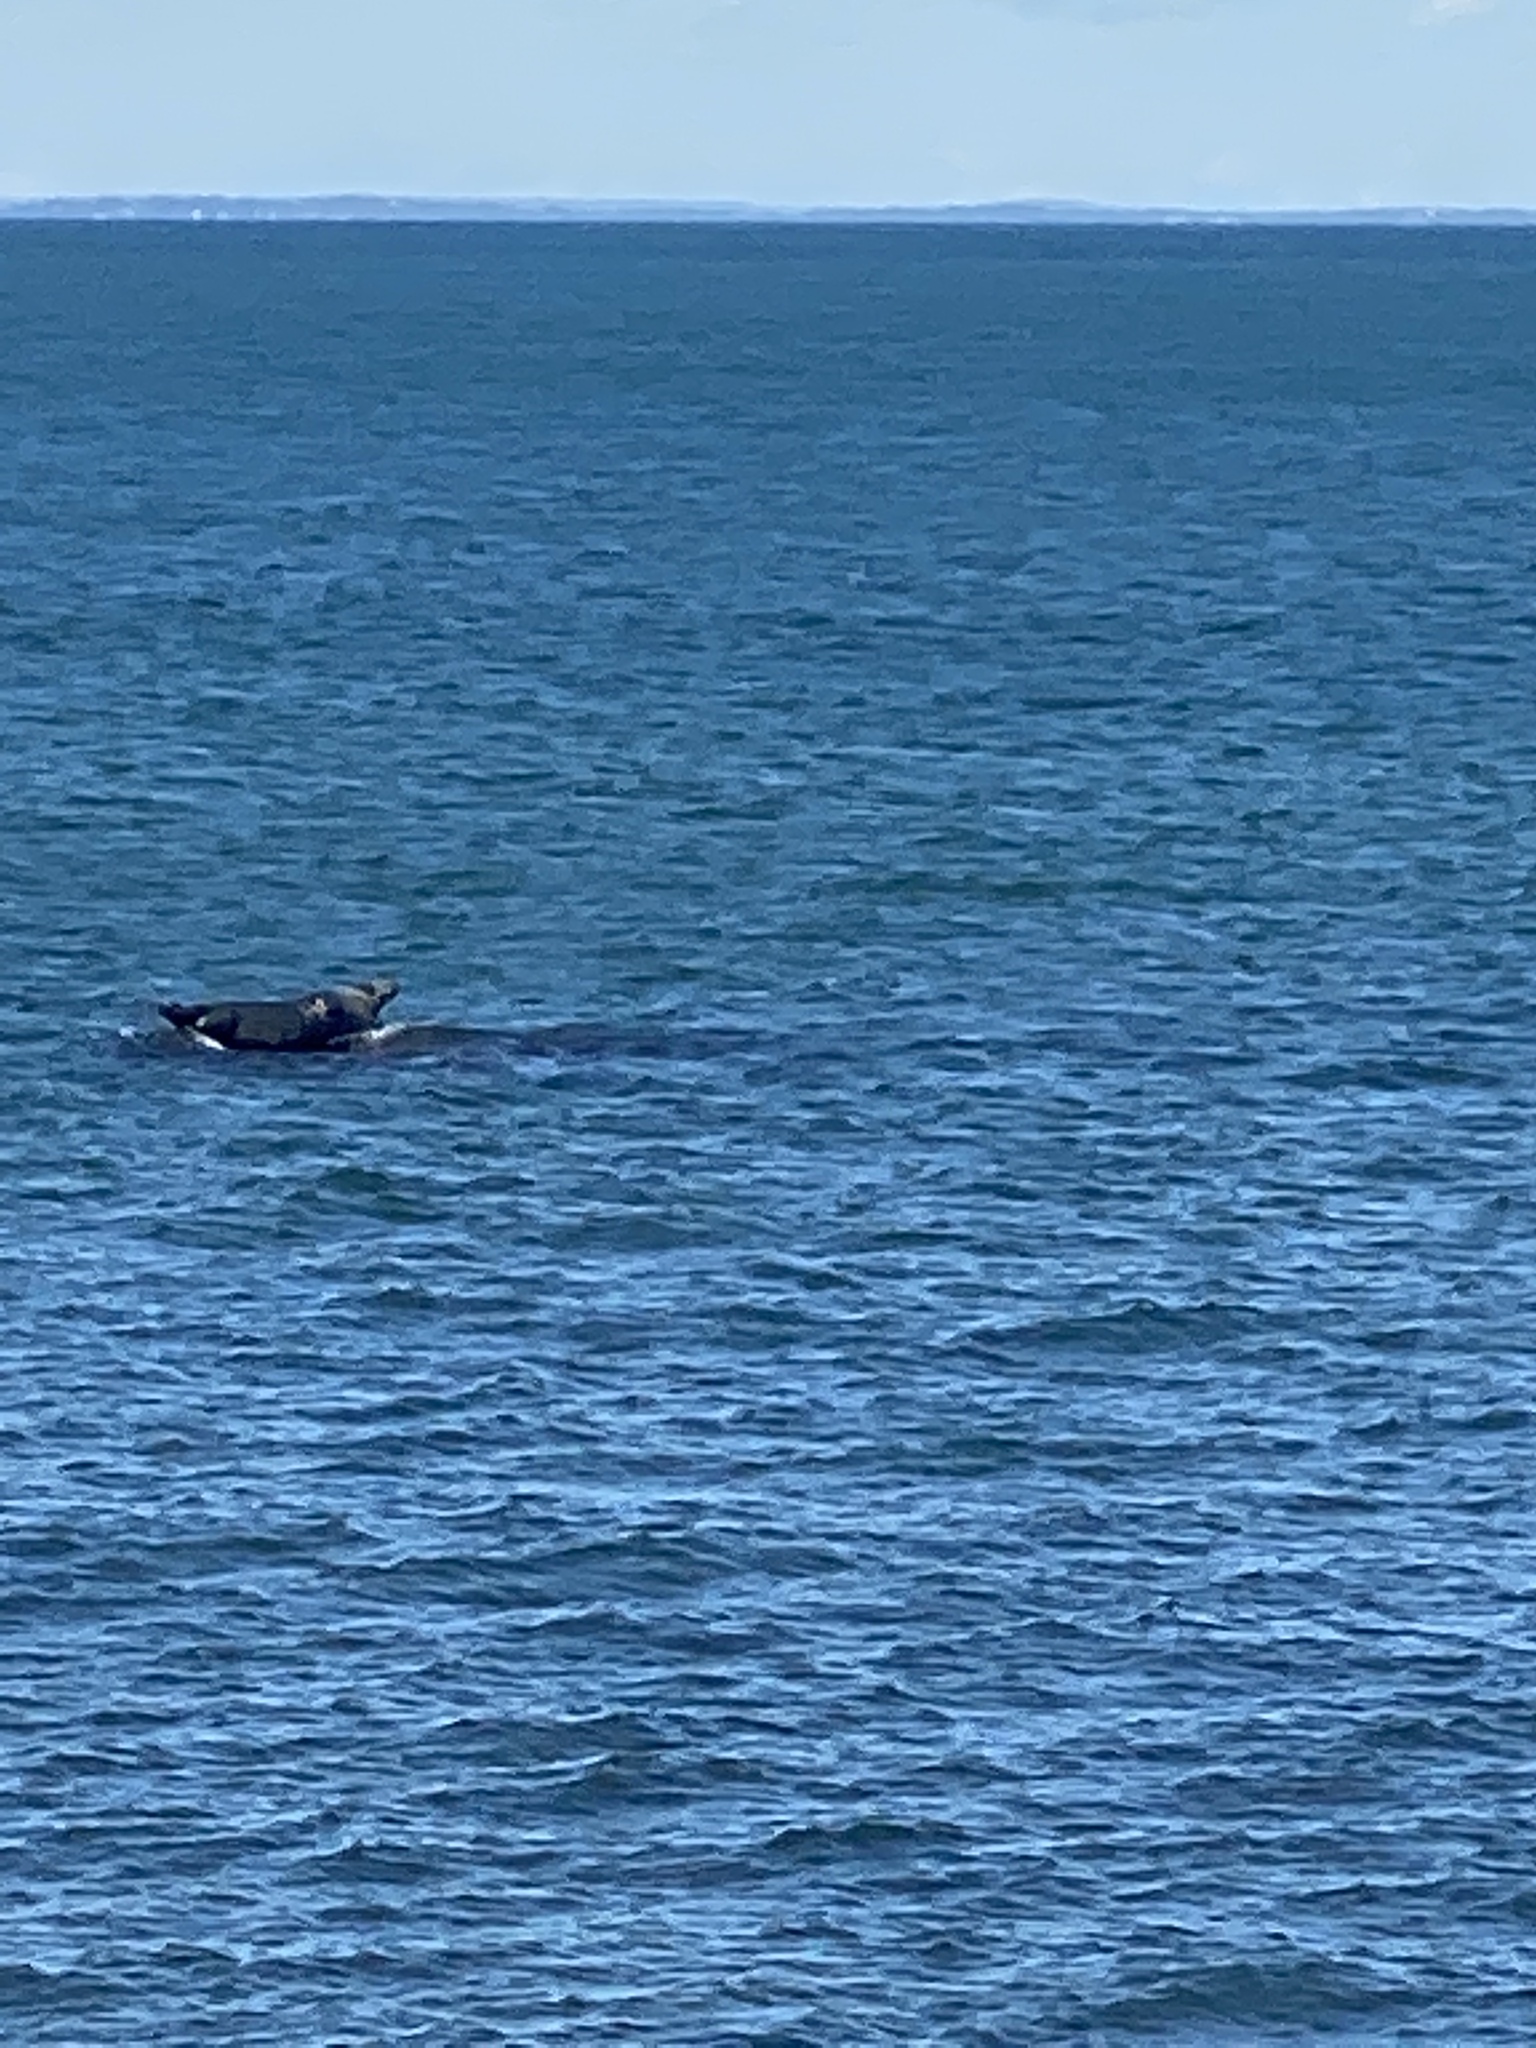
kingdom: Animalia
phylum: Chordata
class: Mammalia
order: Carnivora
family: Phocidae
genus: Halichoerus
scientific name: Halichoerus grypus
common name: Grey seal
